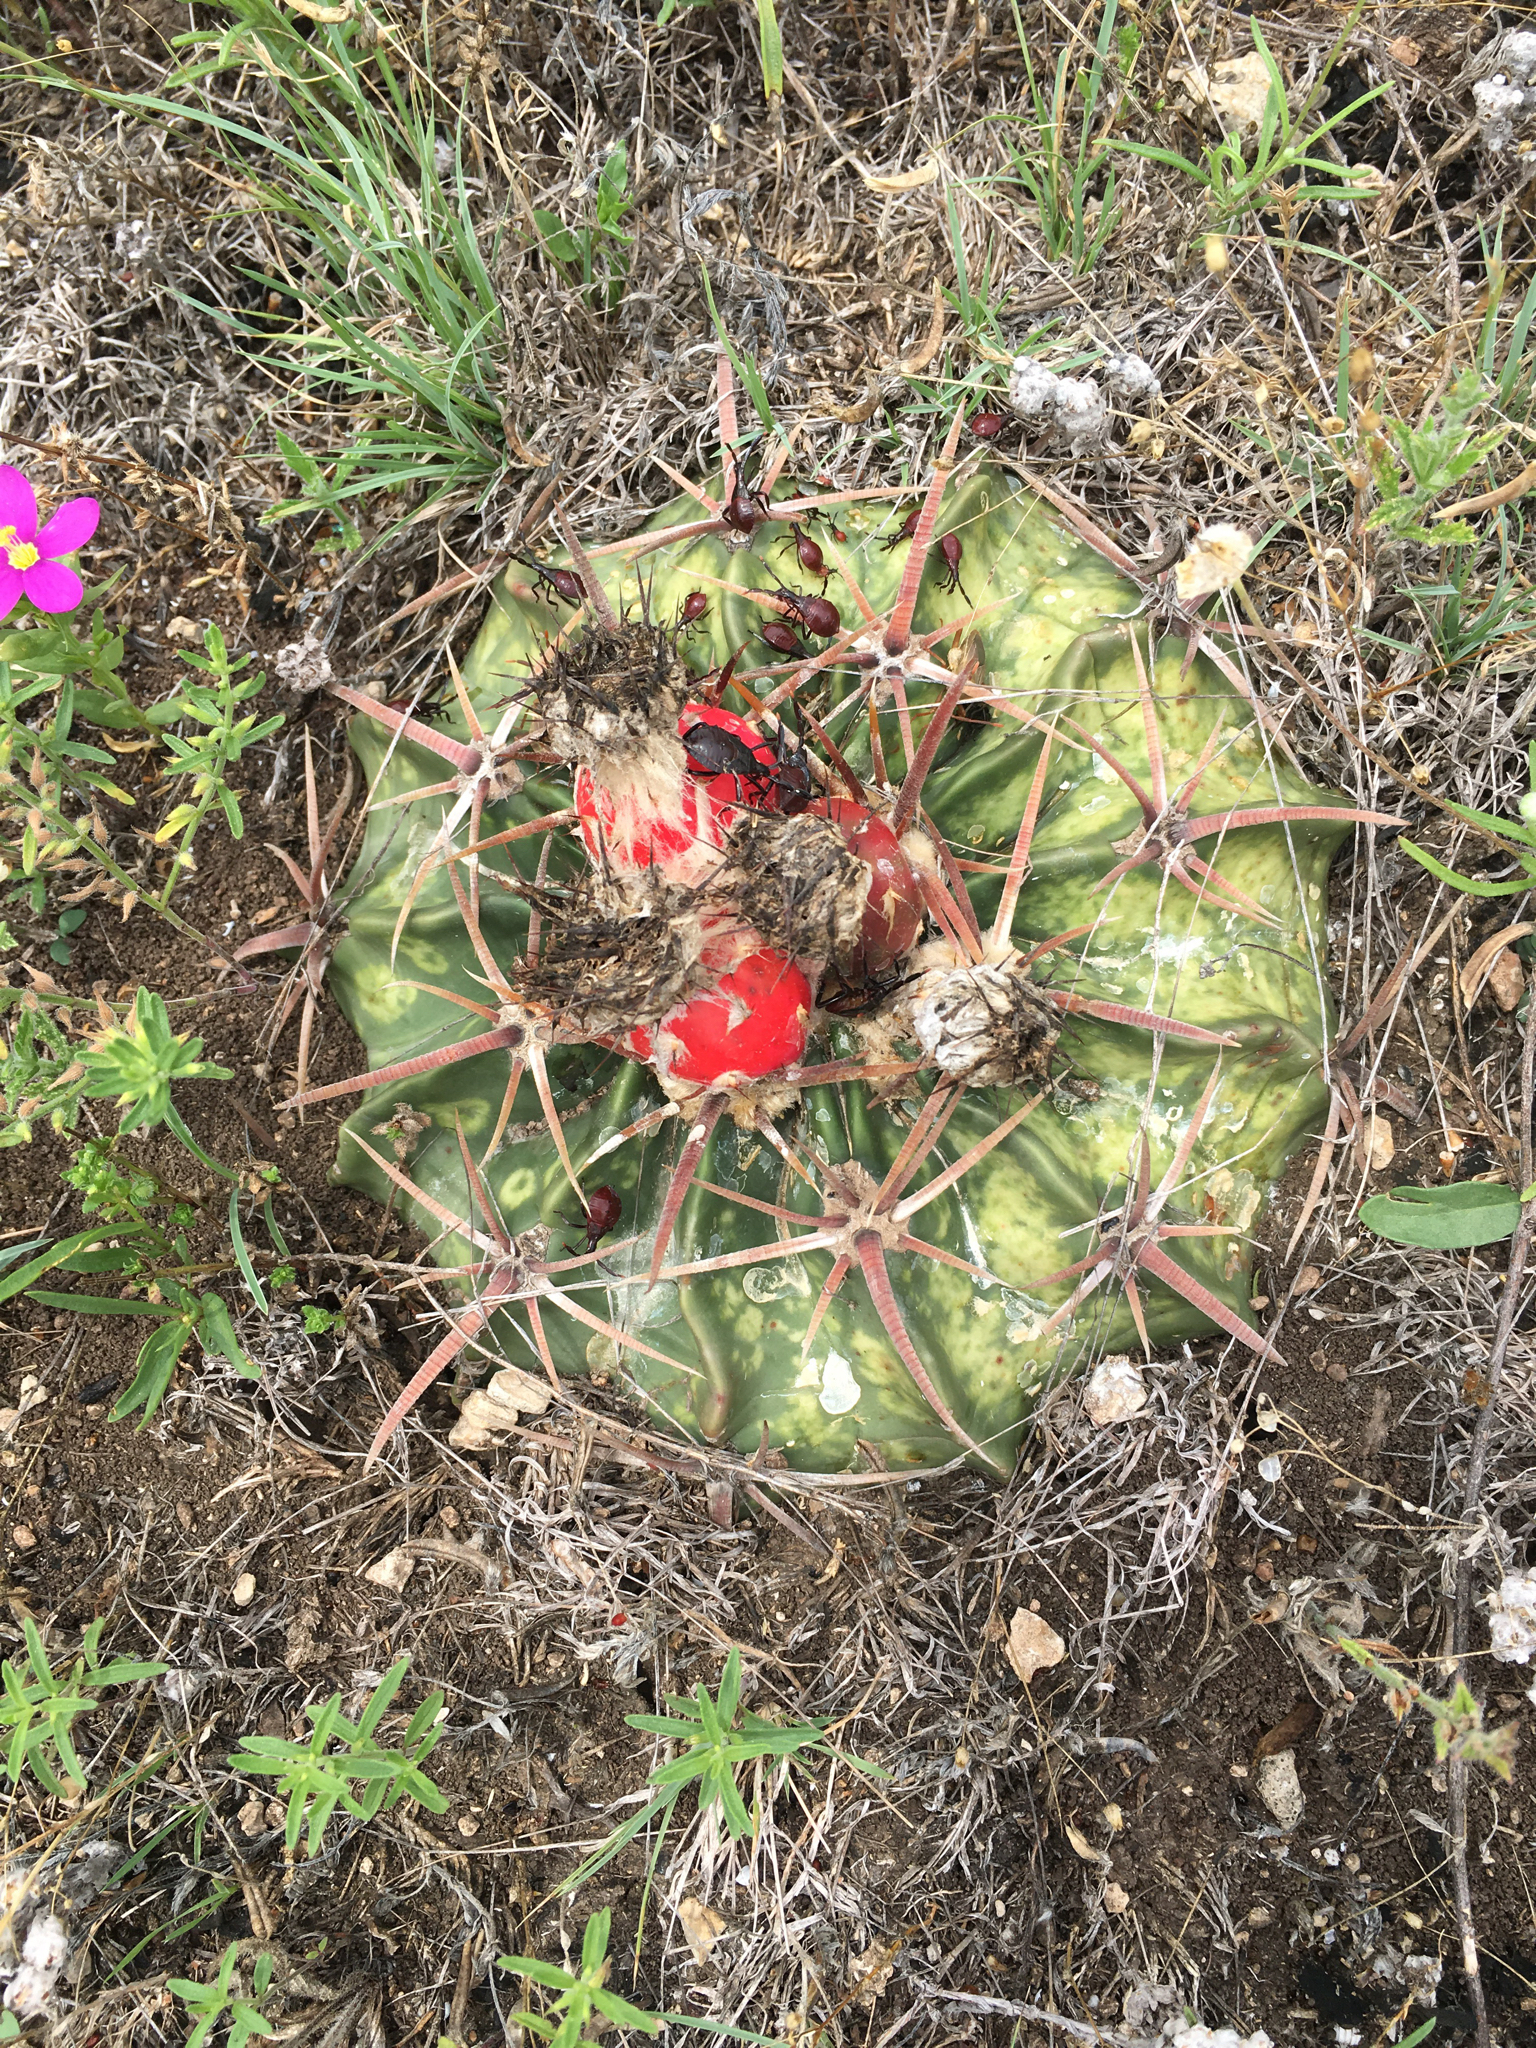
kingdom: Plantae
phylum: Tracheophyta
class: Magnoliopsida
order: Caryophyllales
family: Cactaceae
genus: Echinocactus
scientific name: Echinocactus texensis
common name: Devil's pincushion
